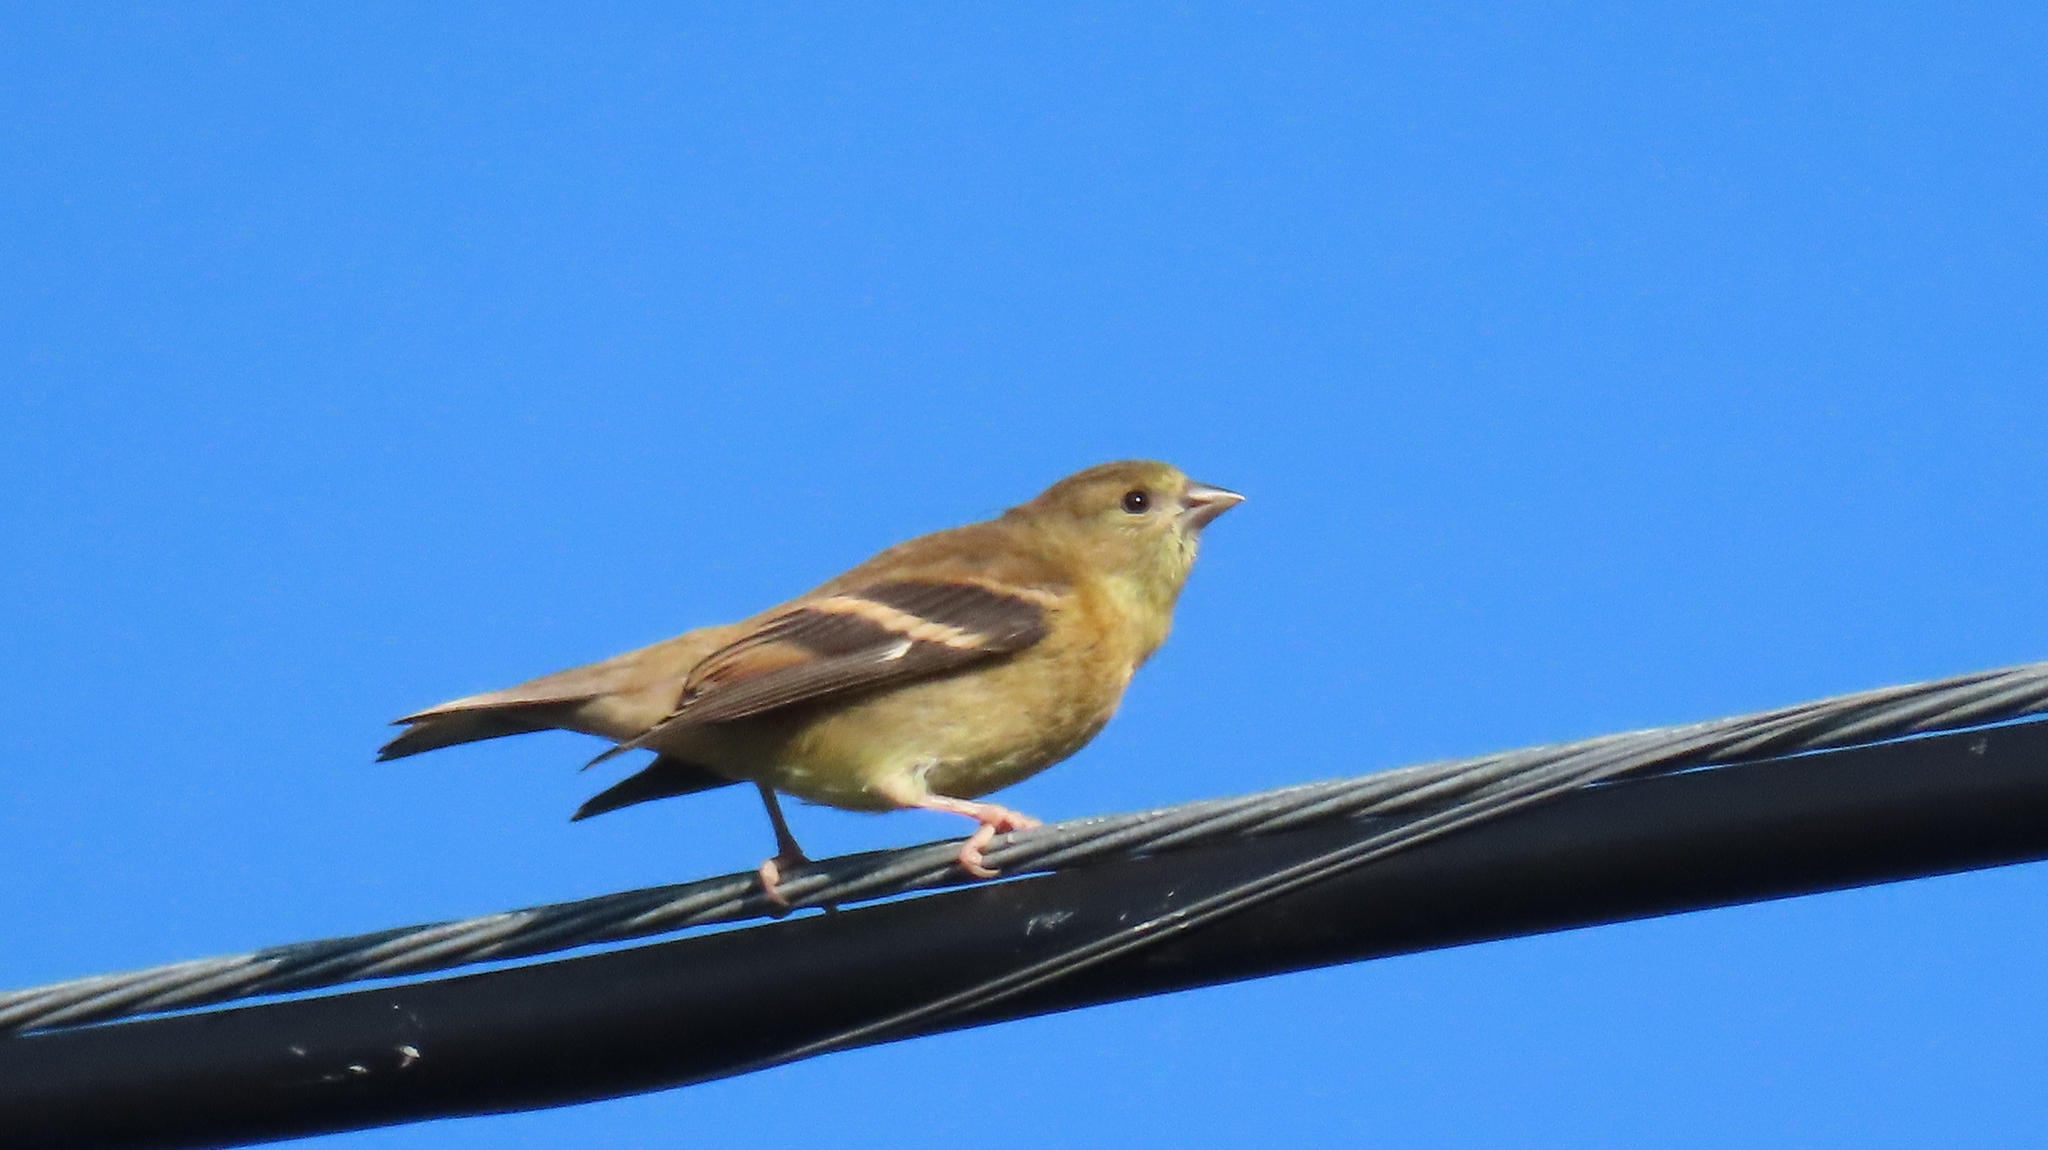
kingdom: Animalia
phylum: Chordata
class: Aves
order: Passeriformes
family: Fringillidae
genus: Spinus
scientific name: Spinus tristis
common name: American goldfinch
